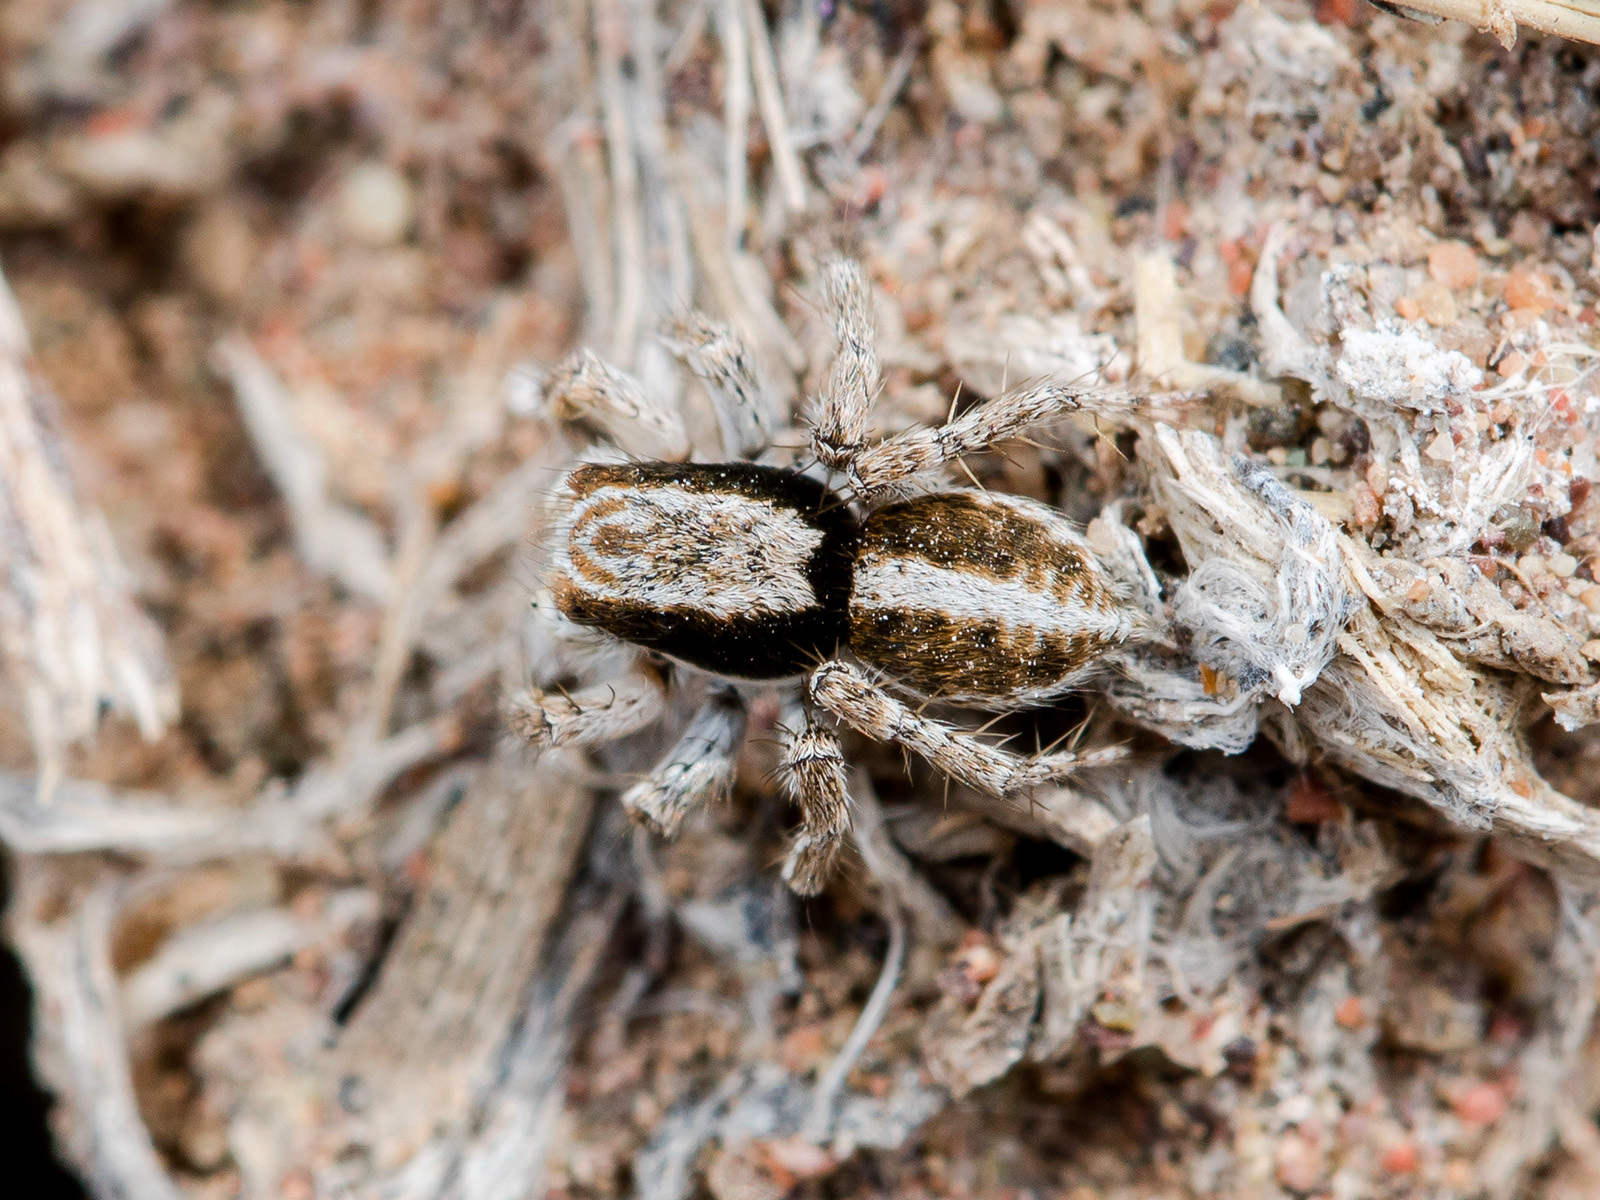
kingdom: Animalia
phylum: Arthropoda
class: Arachnida
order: Araneae
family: Salticidae
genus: Aelurillus
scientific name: Aelurillus nenilini
